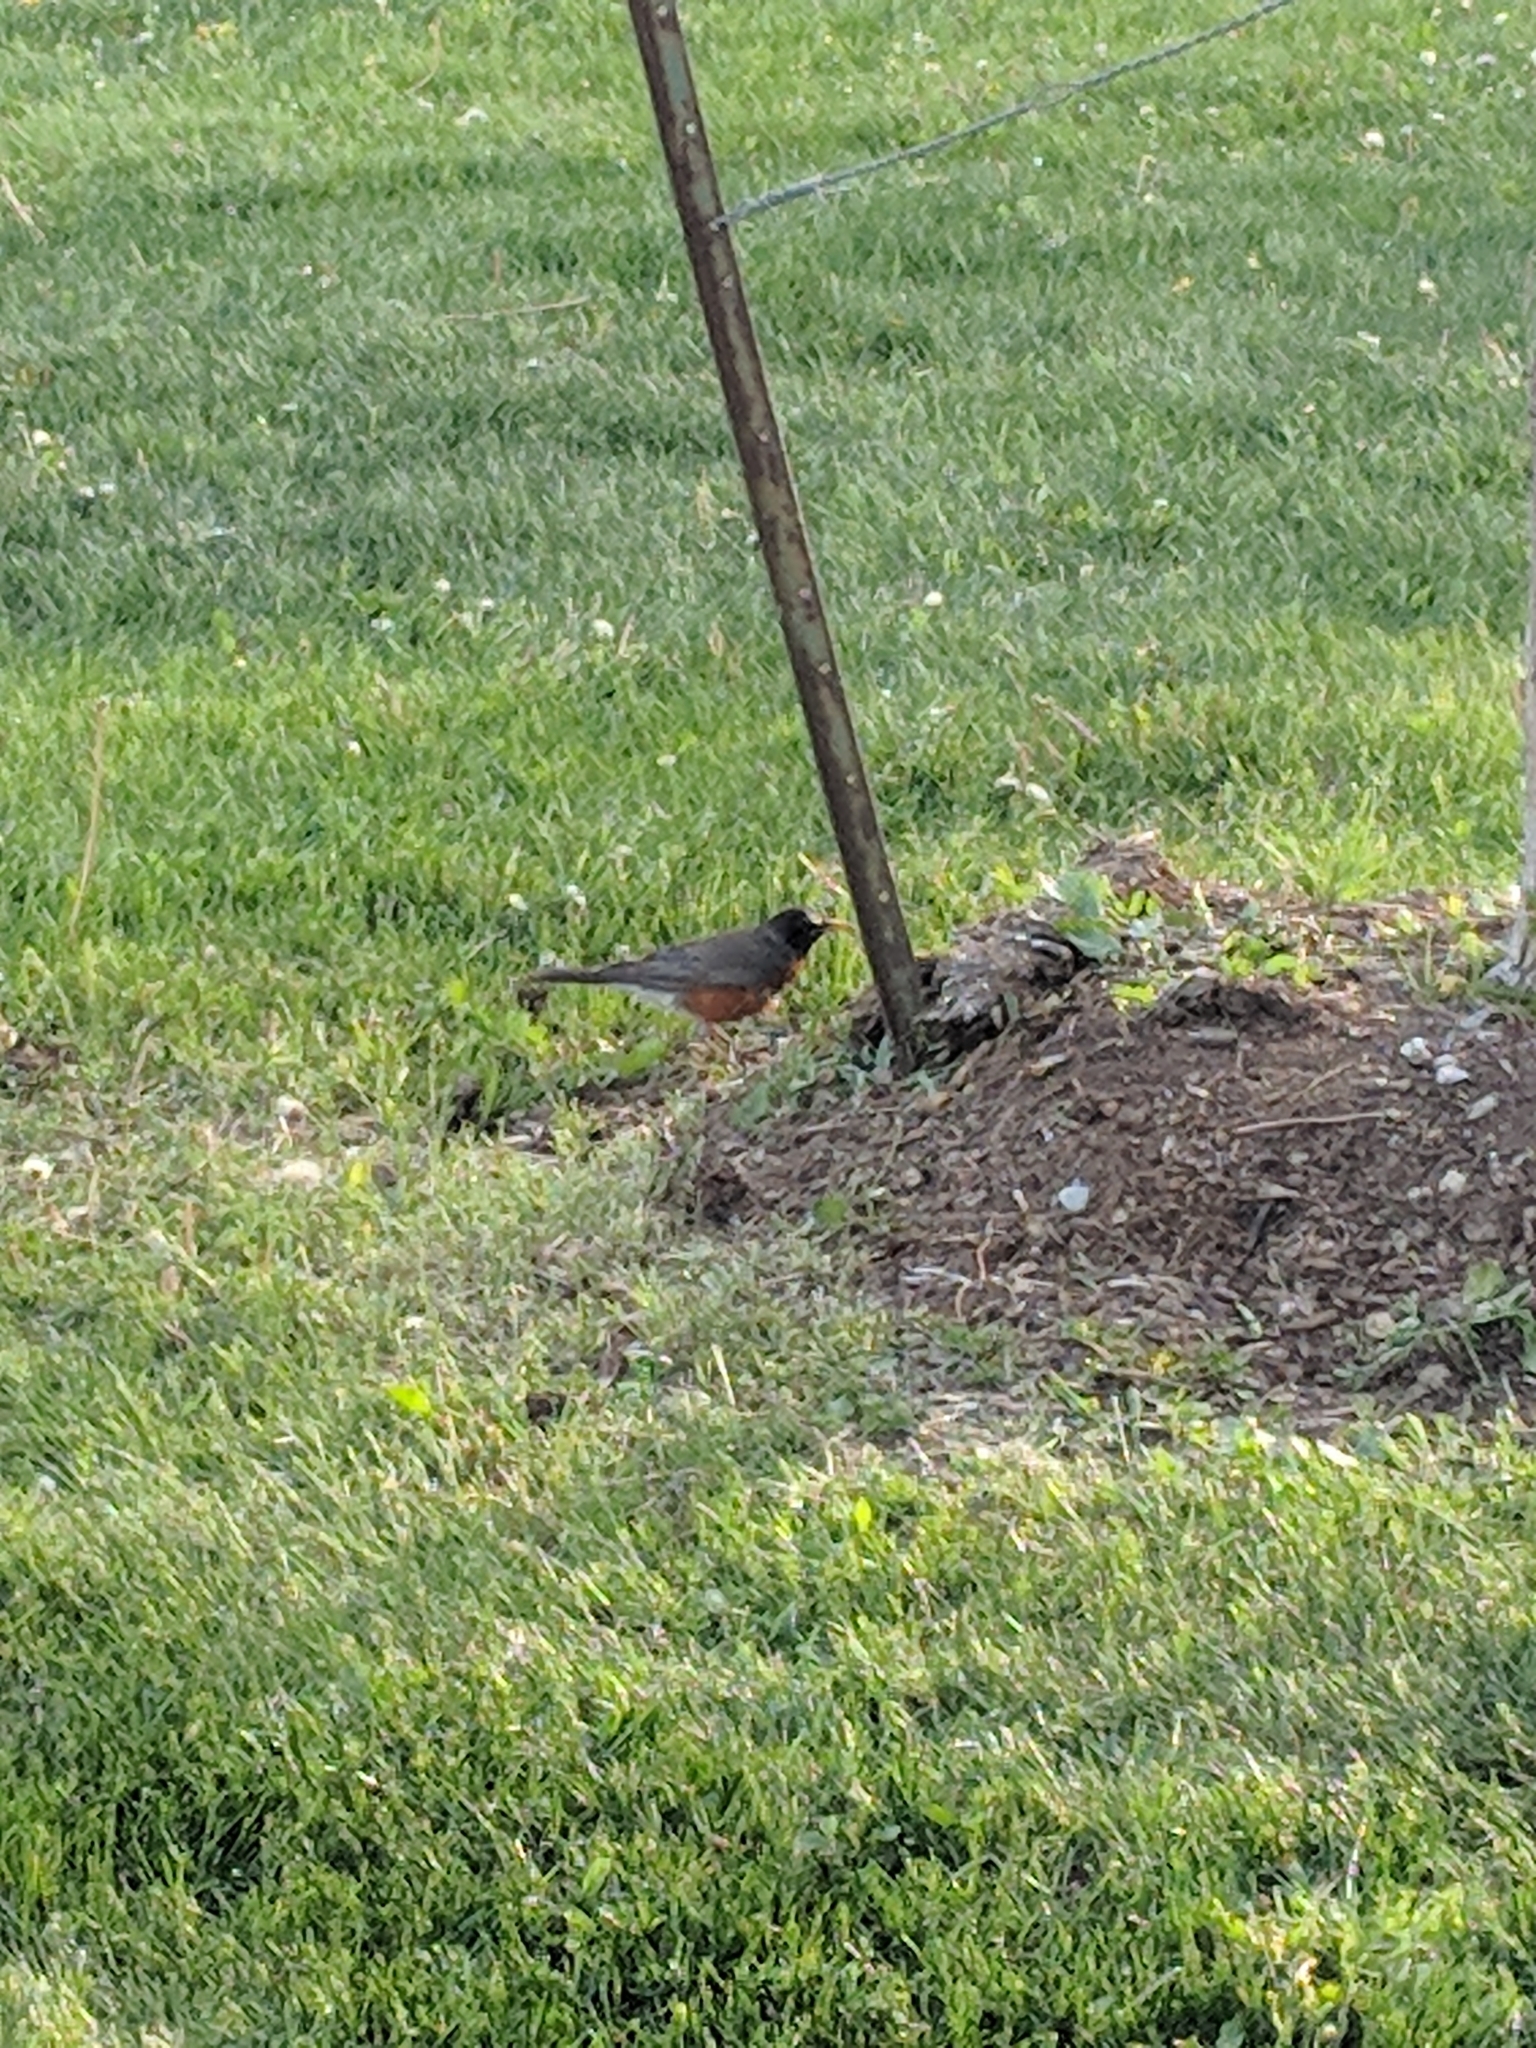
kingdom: Animalia
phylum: Chordata
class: Aves
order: Passeriformes
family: Turdidae
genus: Turdus
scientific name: Turdus migratorius
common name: American robin
